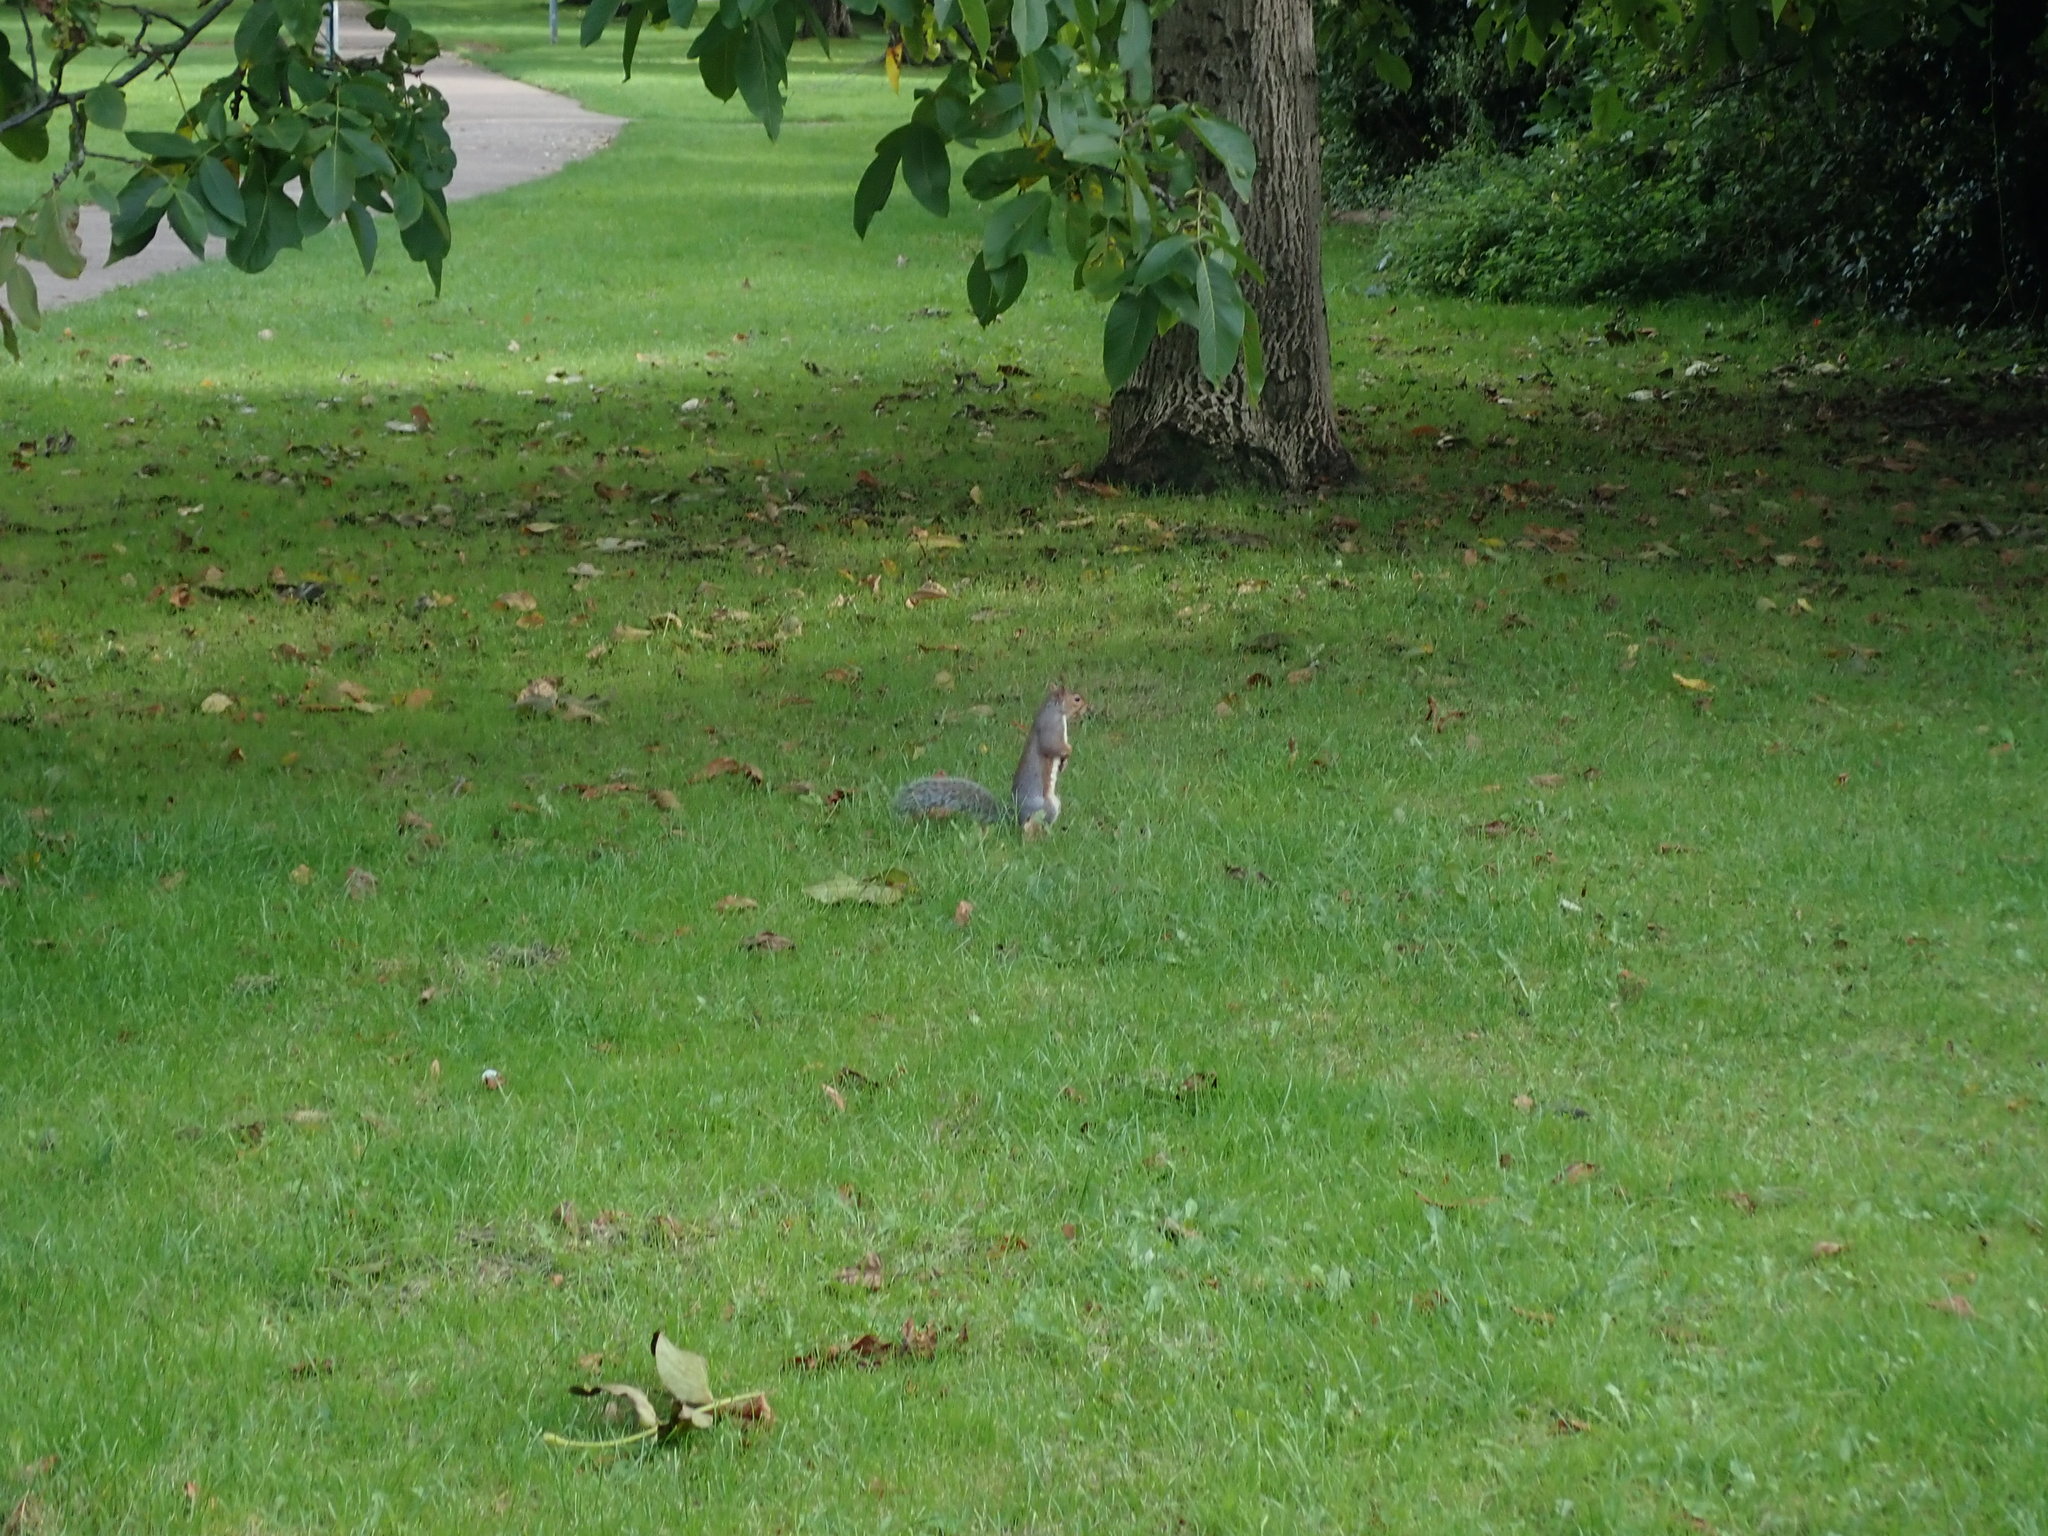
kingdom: Animalia
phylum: Chordata
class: Mammalia
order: Rodentia
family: Sciuridae
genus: Sciurus
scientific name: Sciurus carolinensis
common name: Eastern gray squirrel
